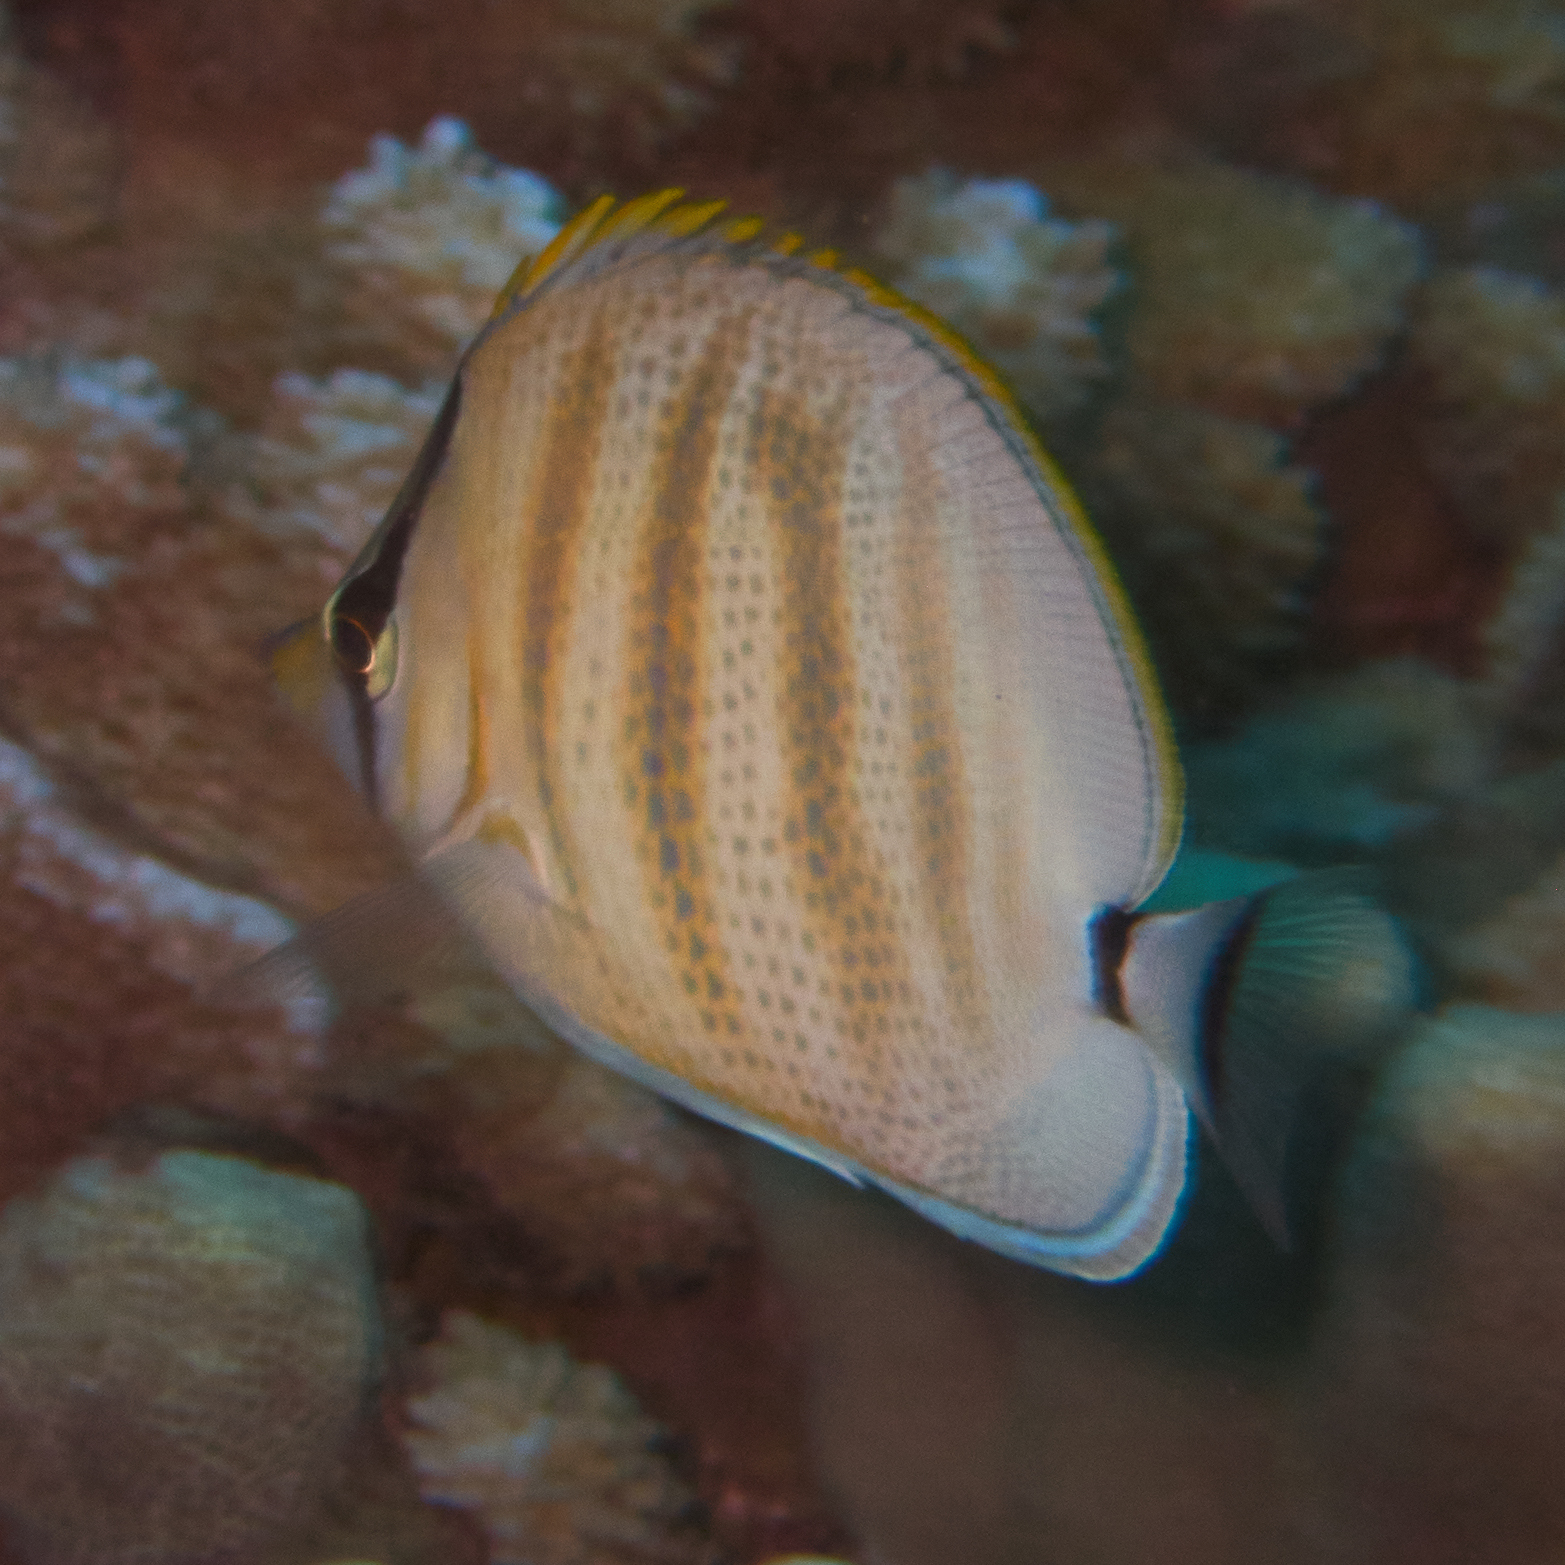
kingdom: Animalia
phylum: Chordata
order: Perciformes
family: Chaetodontidae
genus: Chaetodon
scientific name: Chaetodon multicinctus
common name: Multiband butterflyfish
